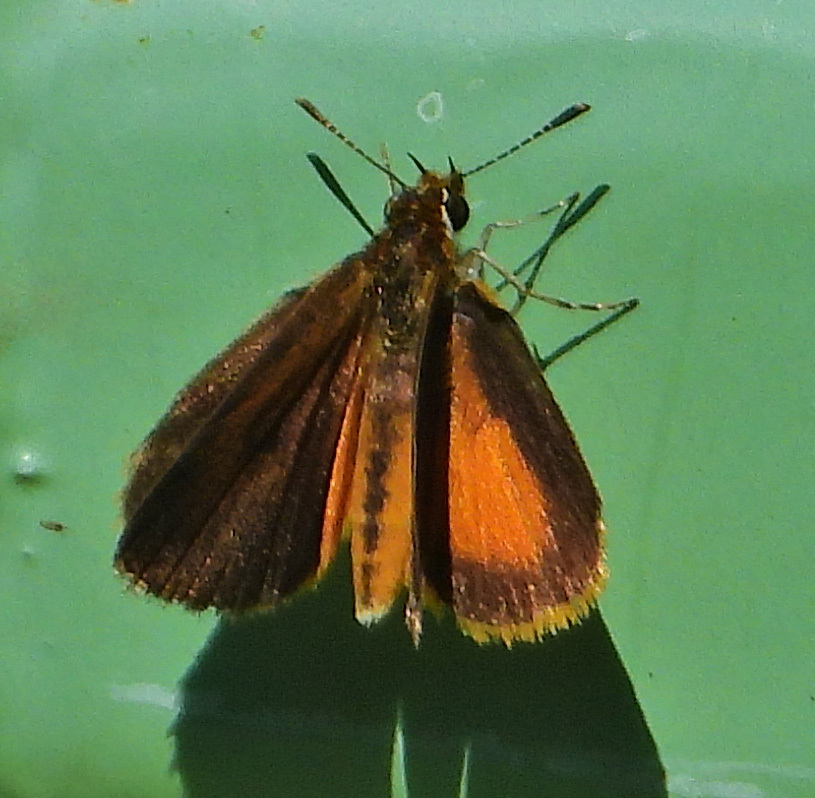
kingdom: Animalia
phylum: Arthropoda
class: Insecta
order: Lepidoptera
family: Hesperiidae
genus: Ancyloxypha
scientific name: Ancyloxypha numitor
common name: Least skipper
